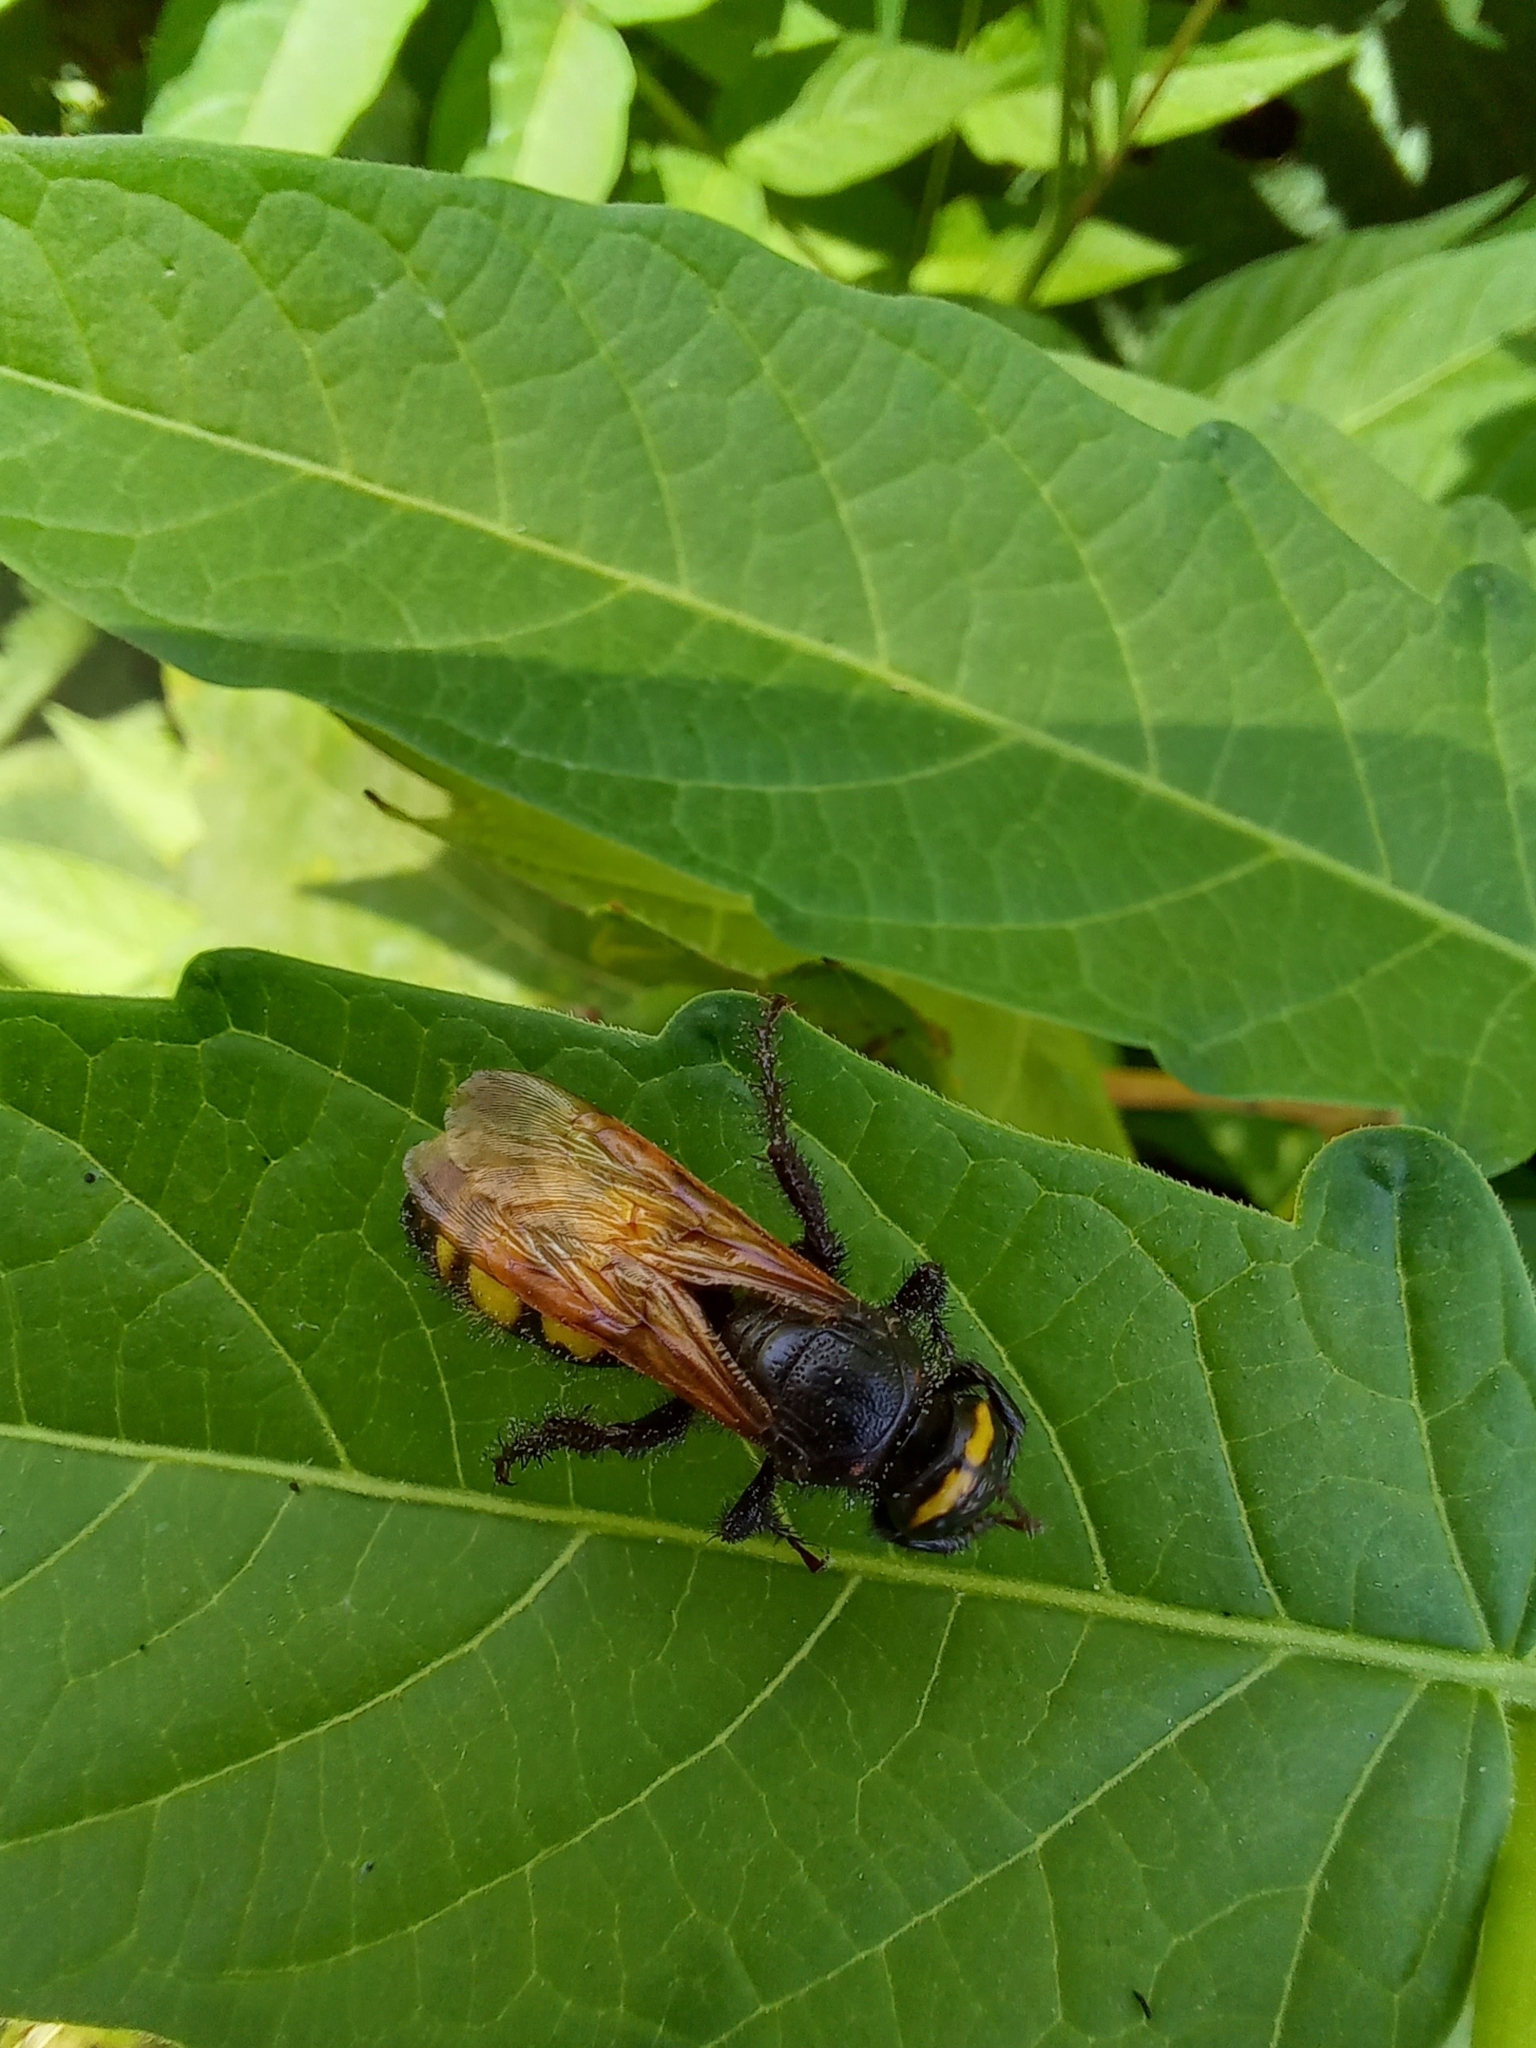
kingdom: Animalia
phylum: Arthropoda
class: Insecta
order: Hymenoptera
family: Scoliidae
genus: Scolia
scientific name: Scolia fuciformis
